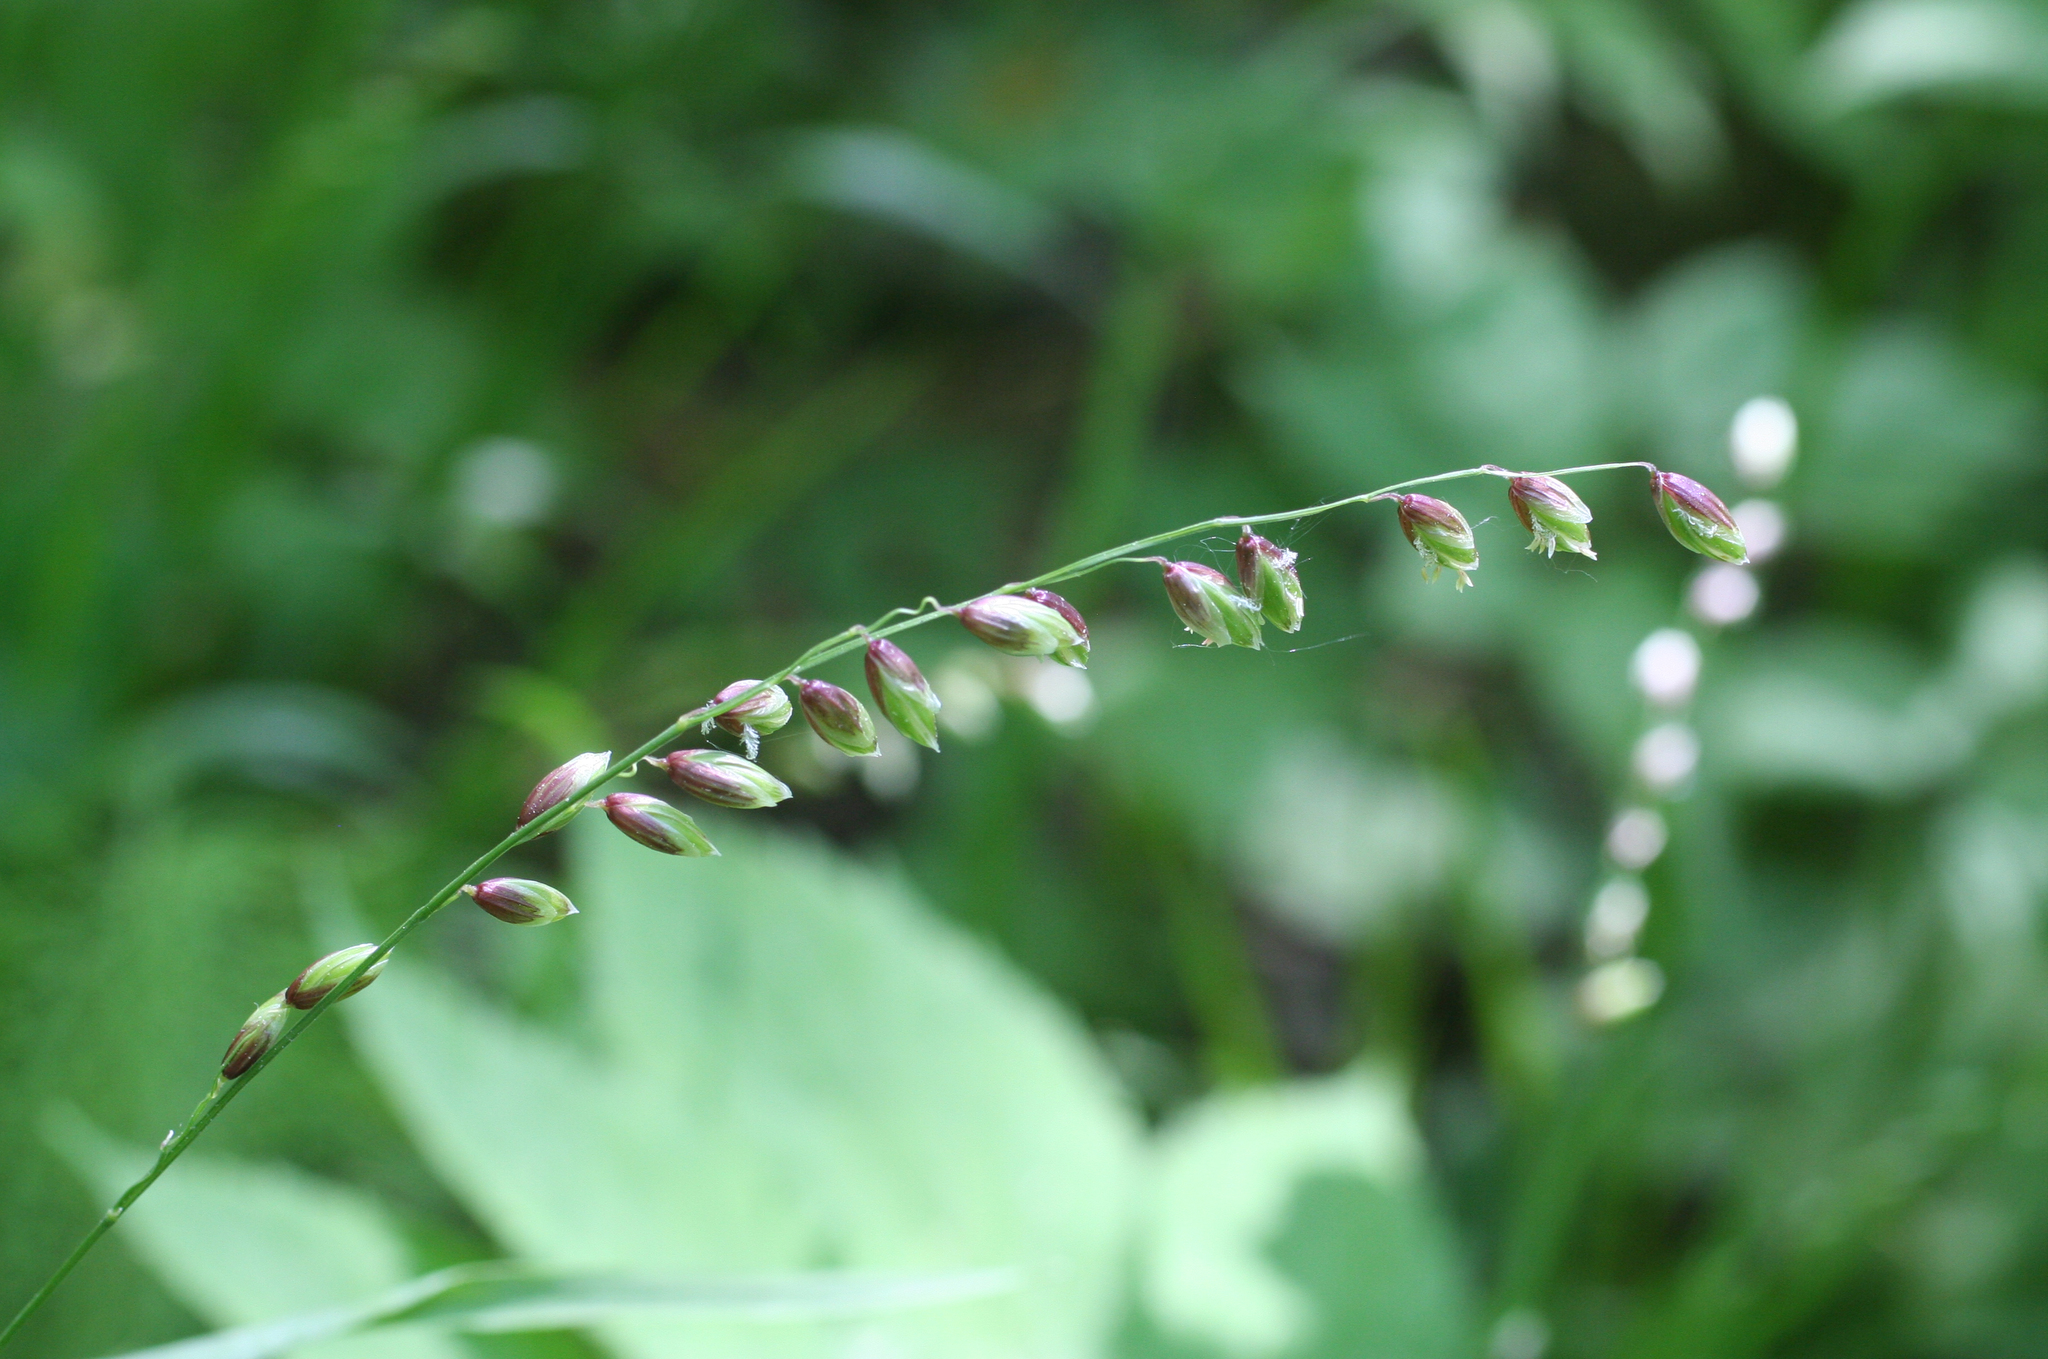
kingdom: Plantae
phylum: Tracheophyta
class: Liliopsida
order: Poales
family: Poaceae
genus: Melica
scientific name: Melica nutans
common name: Mountain melick
